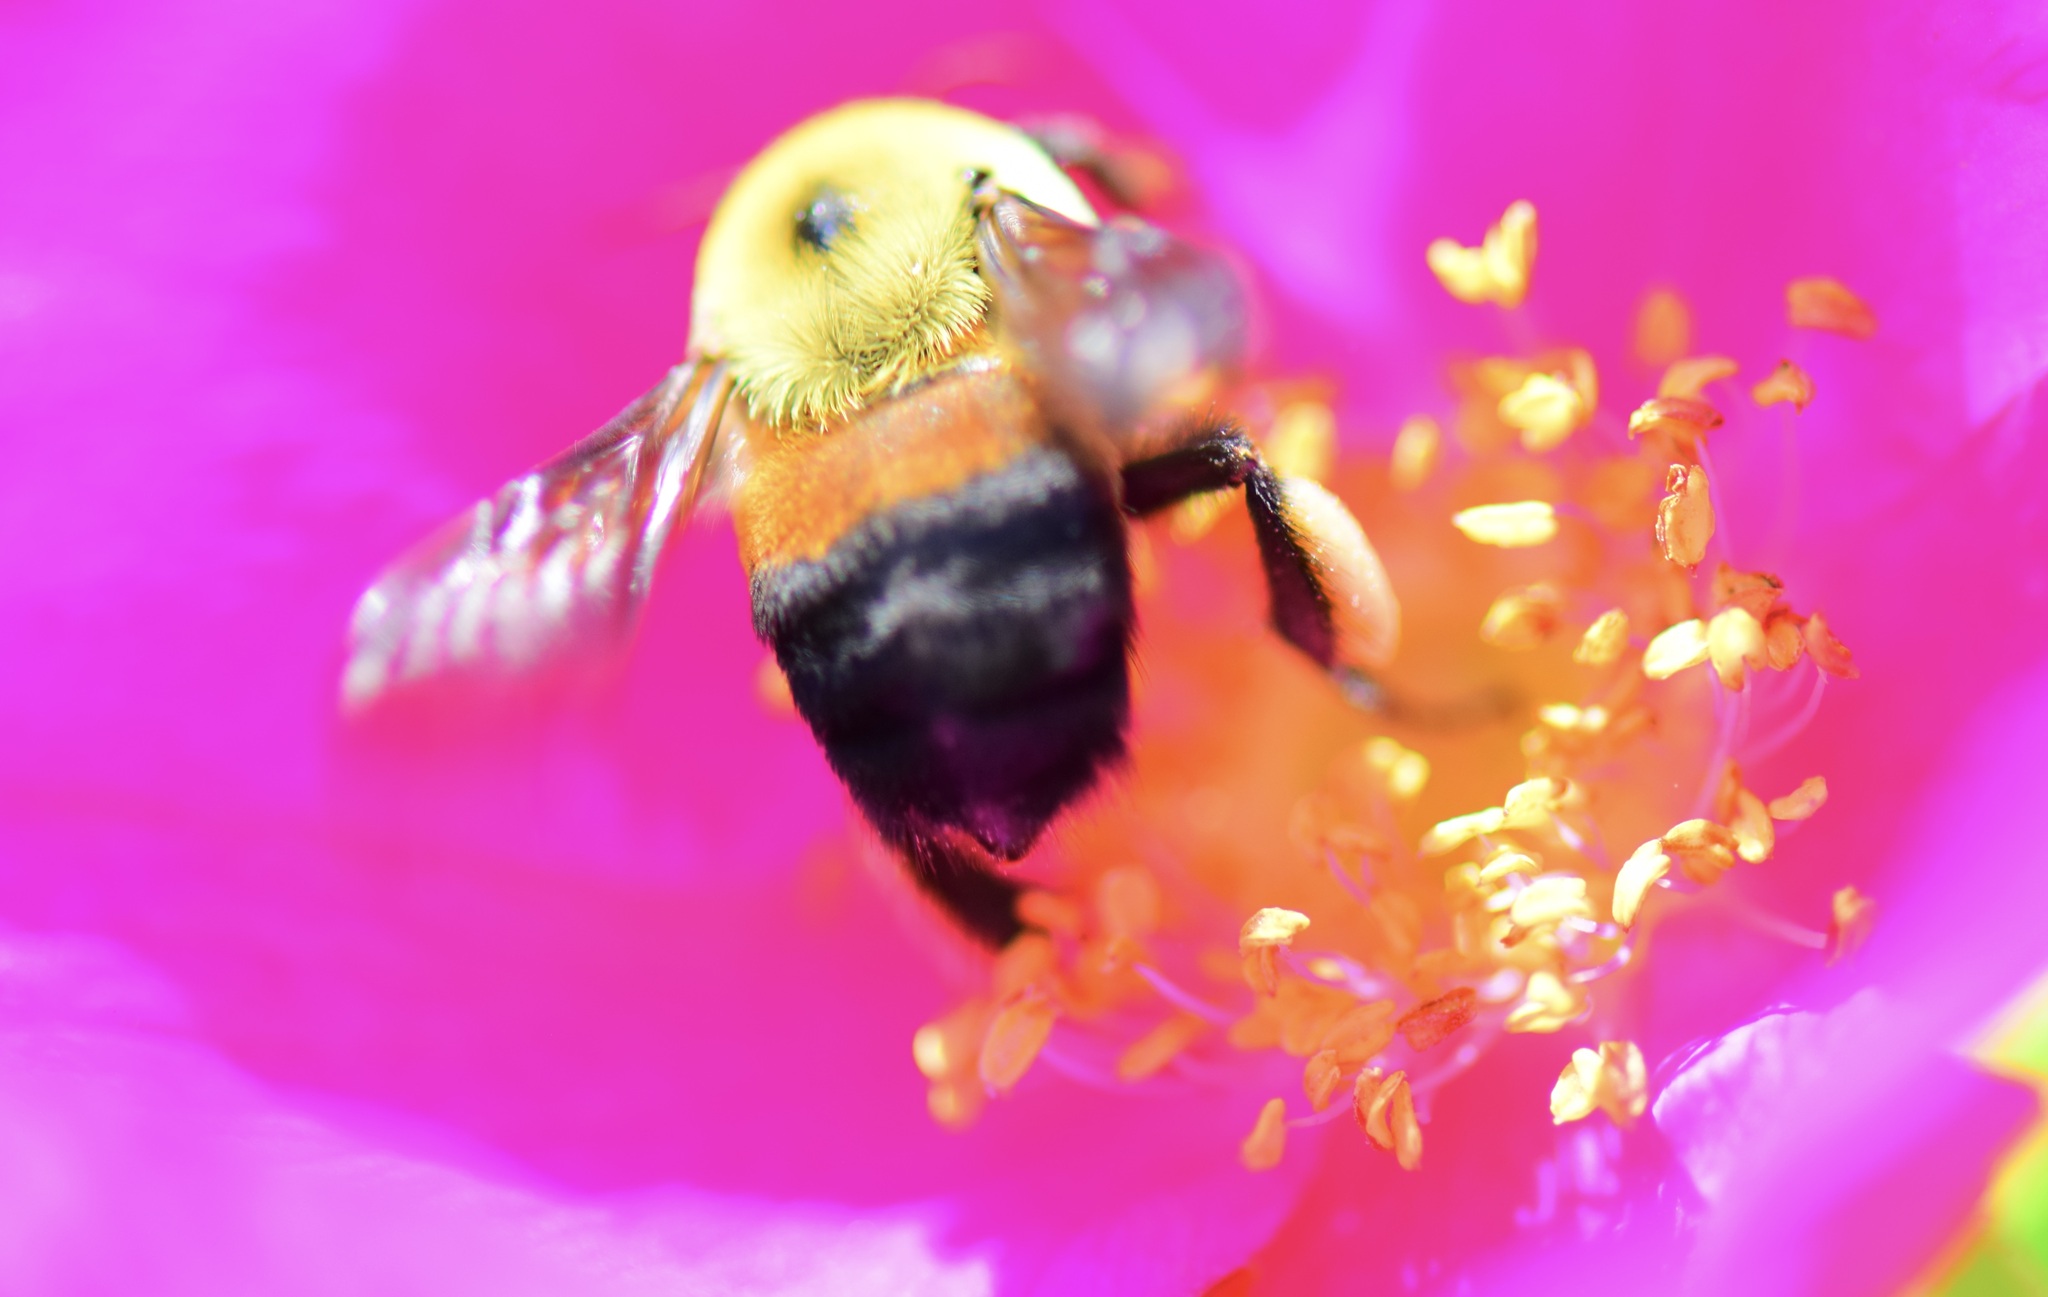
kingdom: Animalia
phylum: Arthropoda
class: Insecta
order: Hymenoptera
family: Apidae
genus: Bombus
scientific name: Bombus griseocollis
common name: Brown-belted bumble bee
